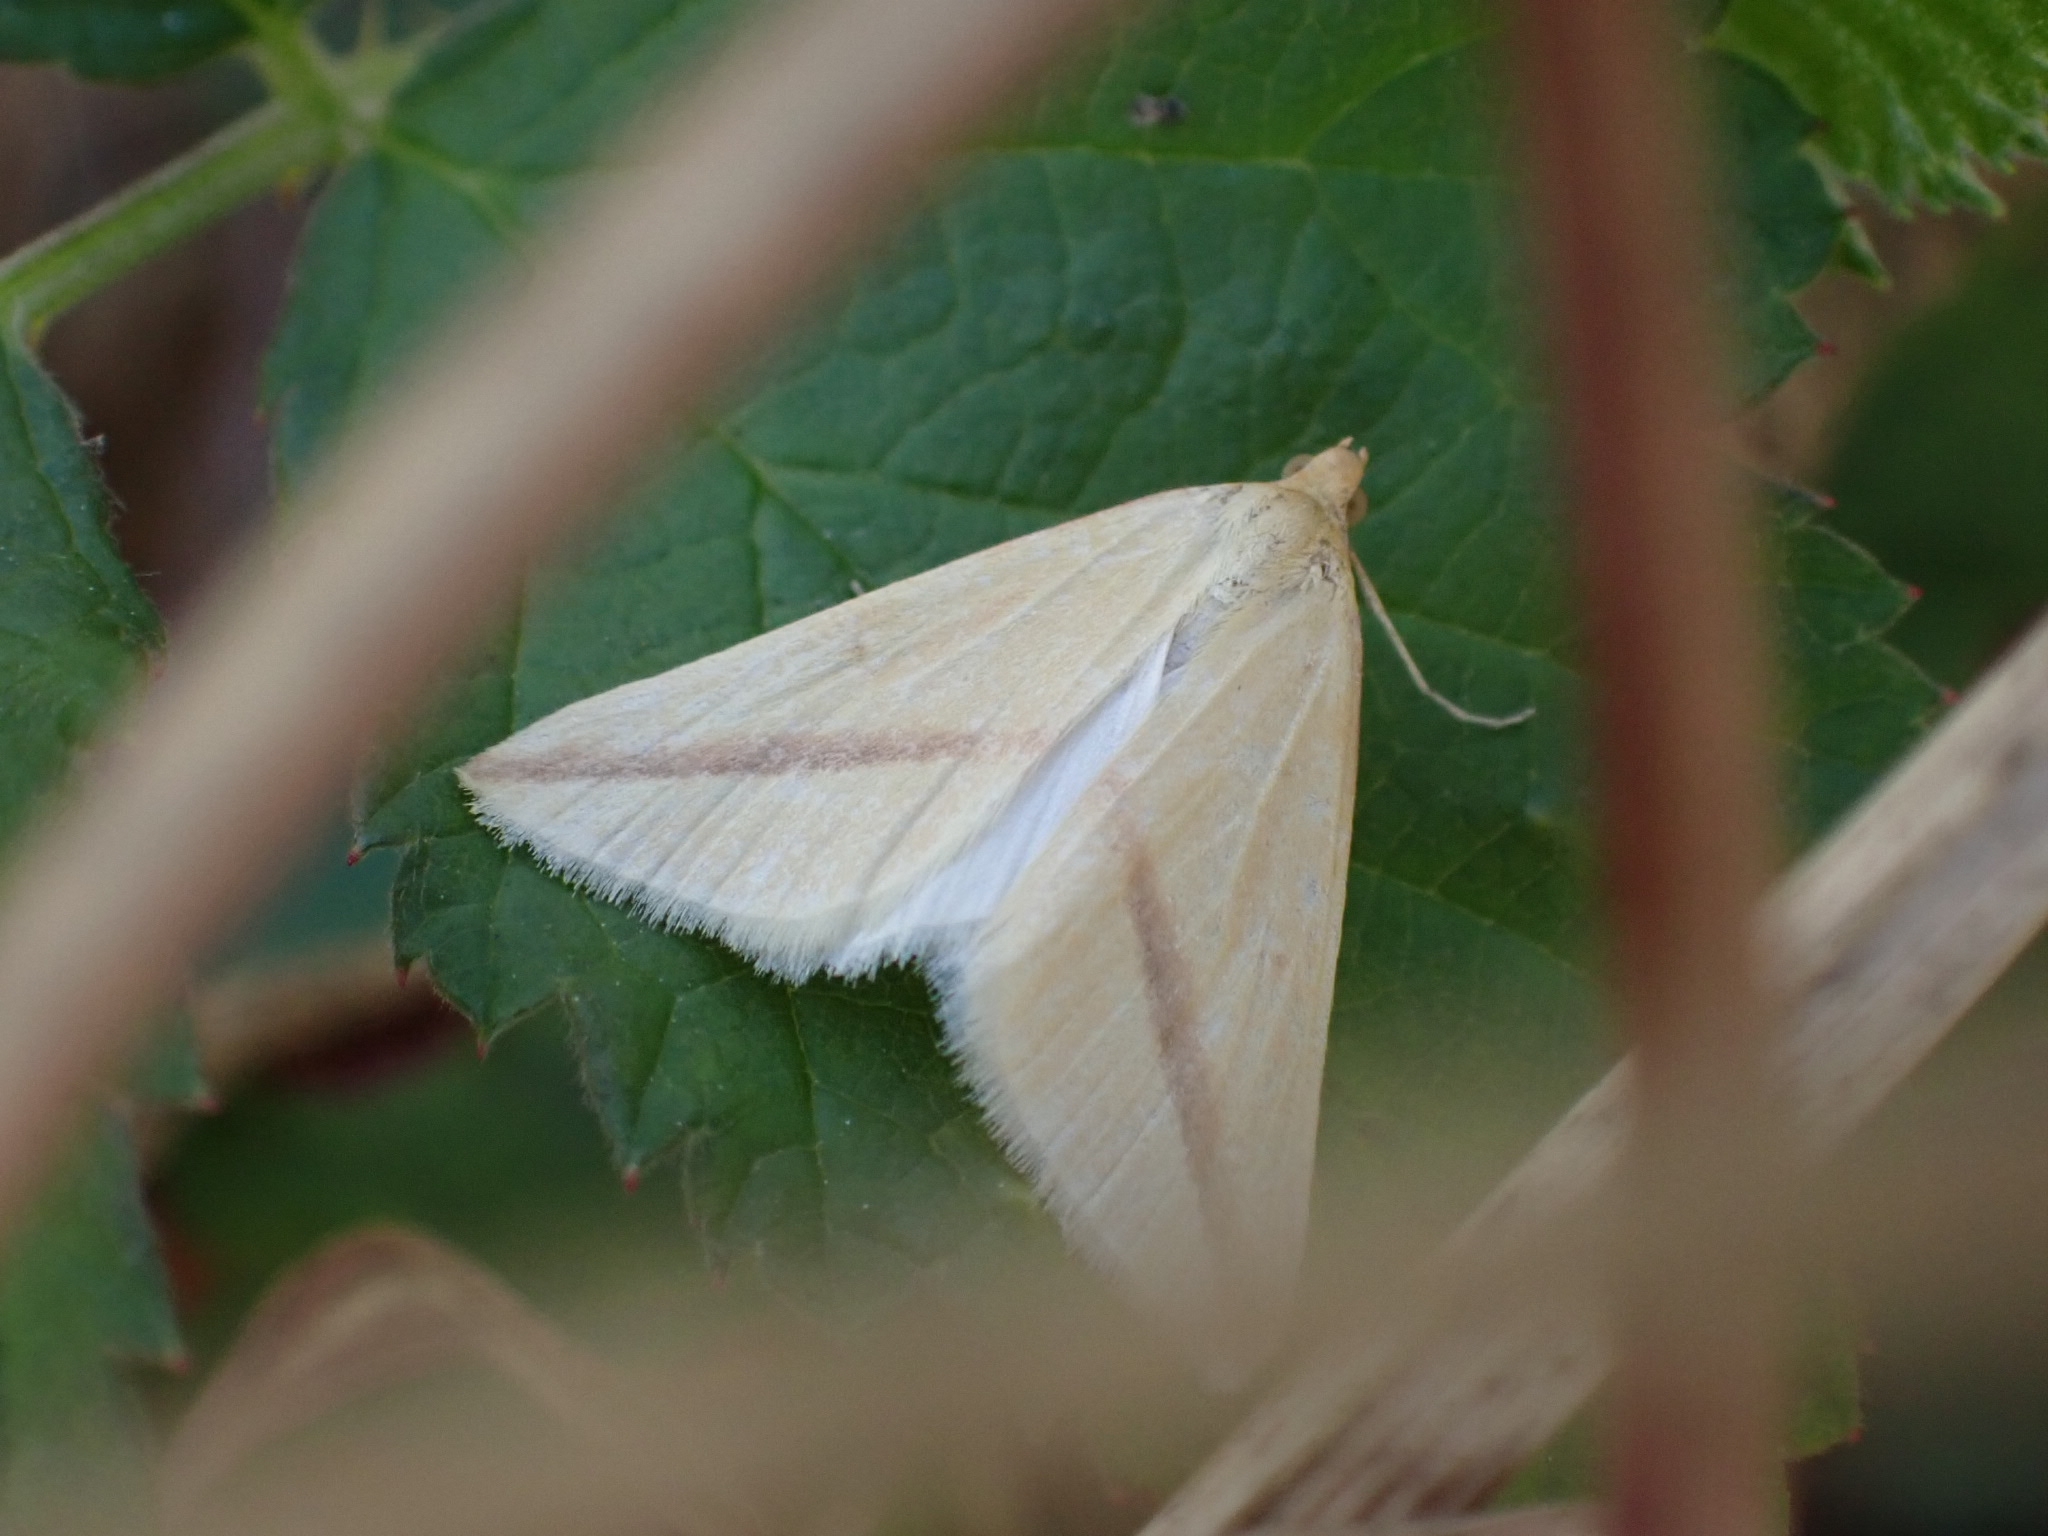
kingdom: Animalia
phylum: Arthropoda
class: Insecta
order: Lepidoptera
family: Geometridae
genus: Rhodometra
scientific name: Rhodometra sacraria
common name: Vestal
